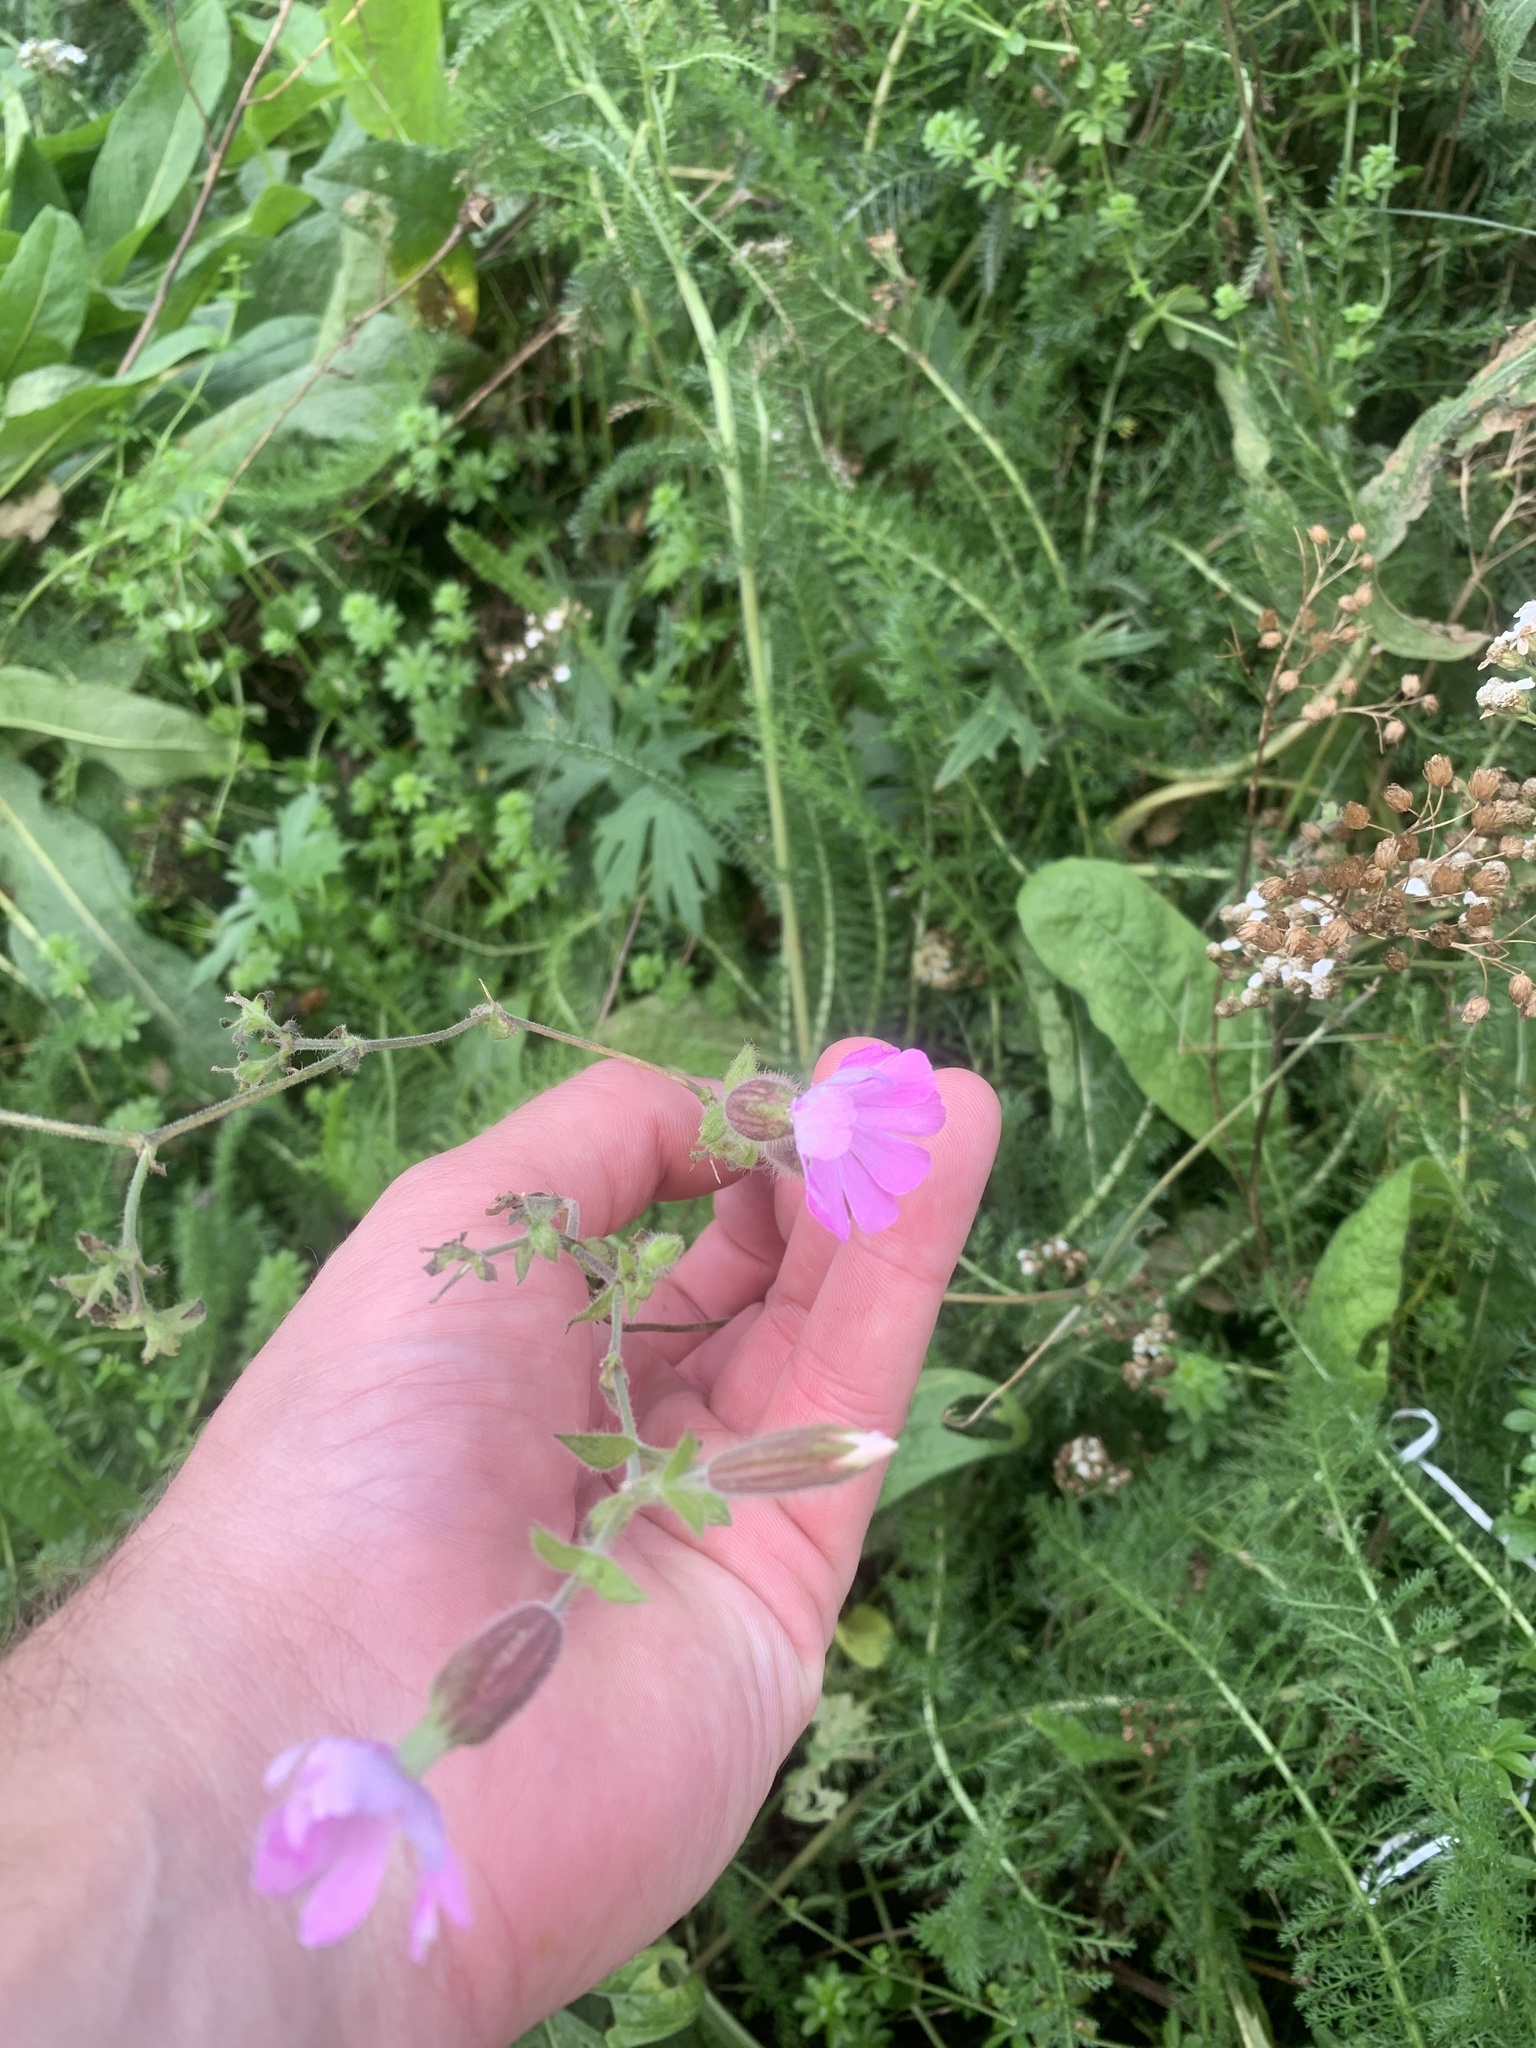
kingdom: Plantae
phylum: Tracheophyta
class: Magnoliopsida
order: Caryophyllales
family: Caryophyllaceae
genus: Silene
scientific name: Silene dioica
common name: Red campion
